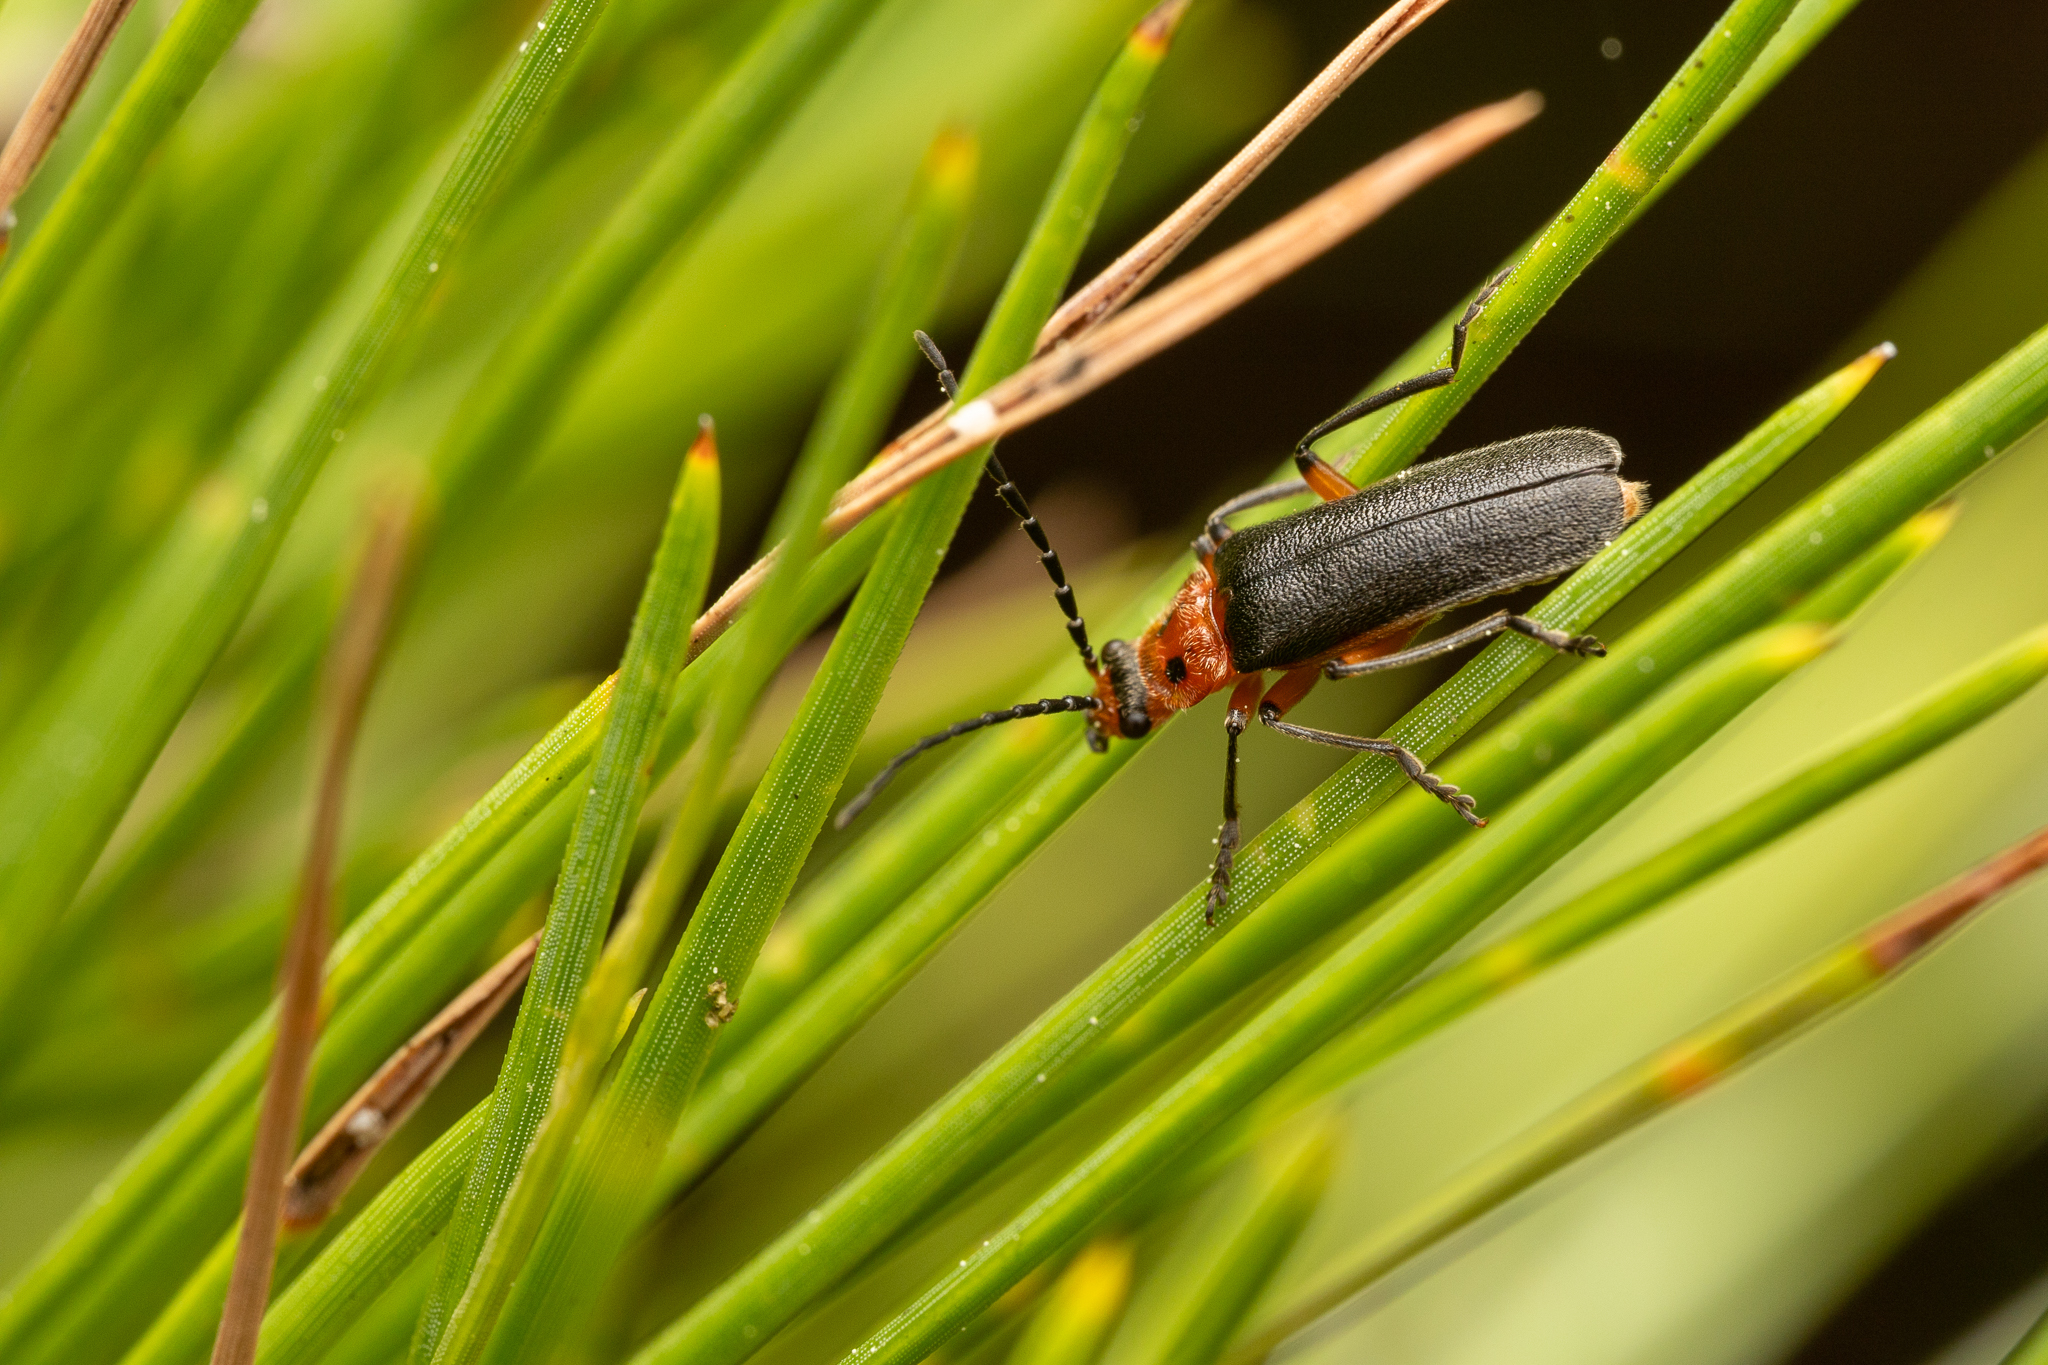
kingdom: Animalia
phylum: Arthropoda
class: Insecta
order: Coleoptera
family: Cantharidae
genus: Atalantycha
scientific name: Atalantycha bilineata
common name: Two-lined leatherwing
